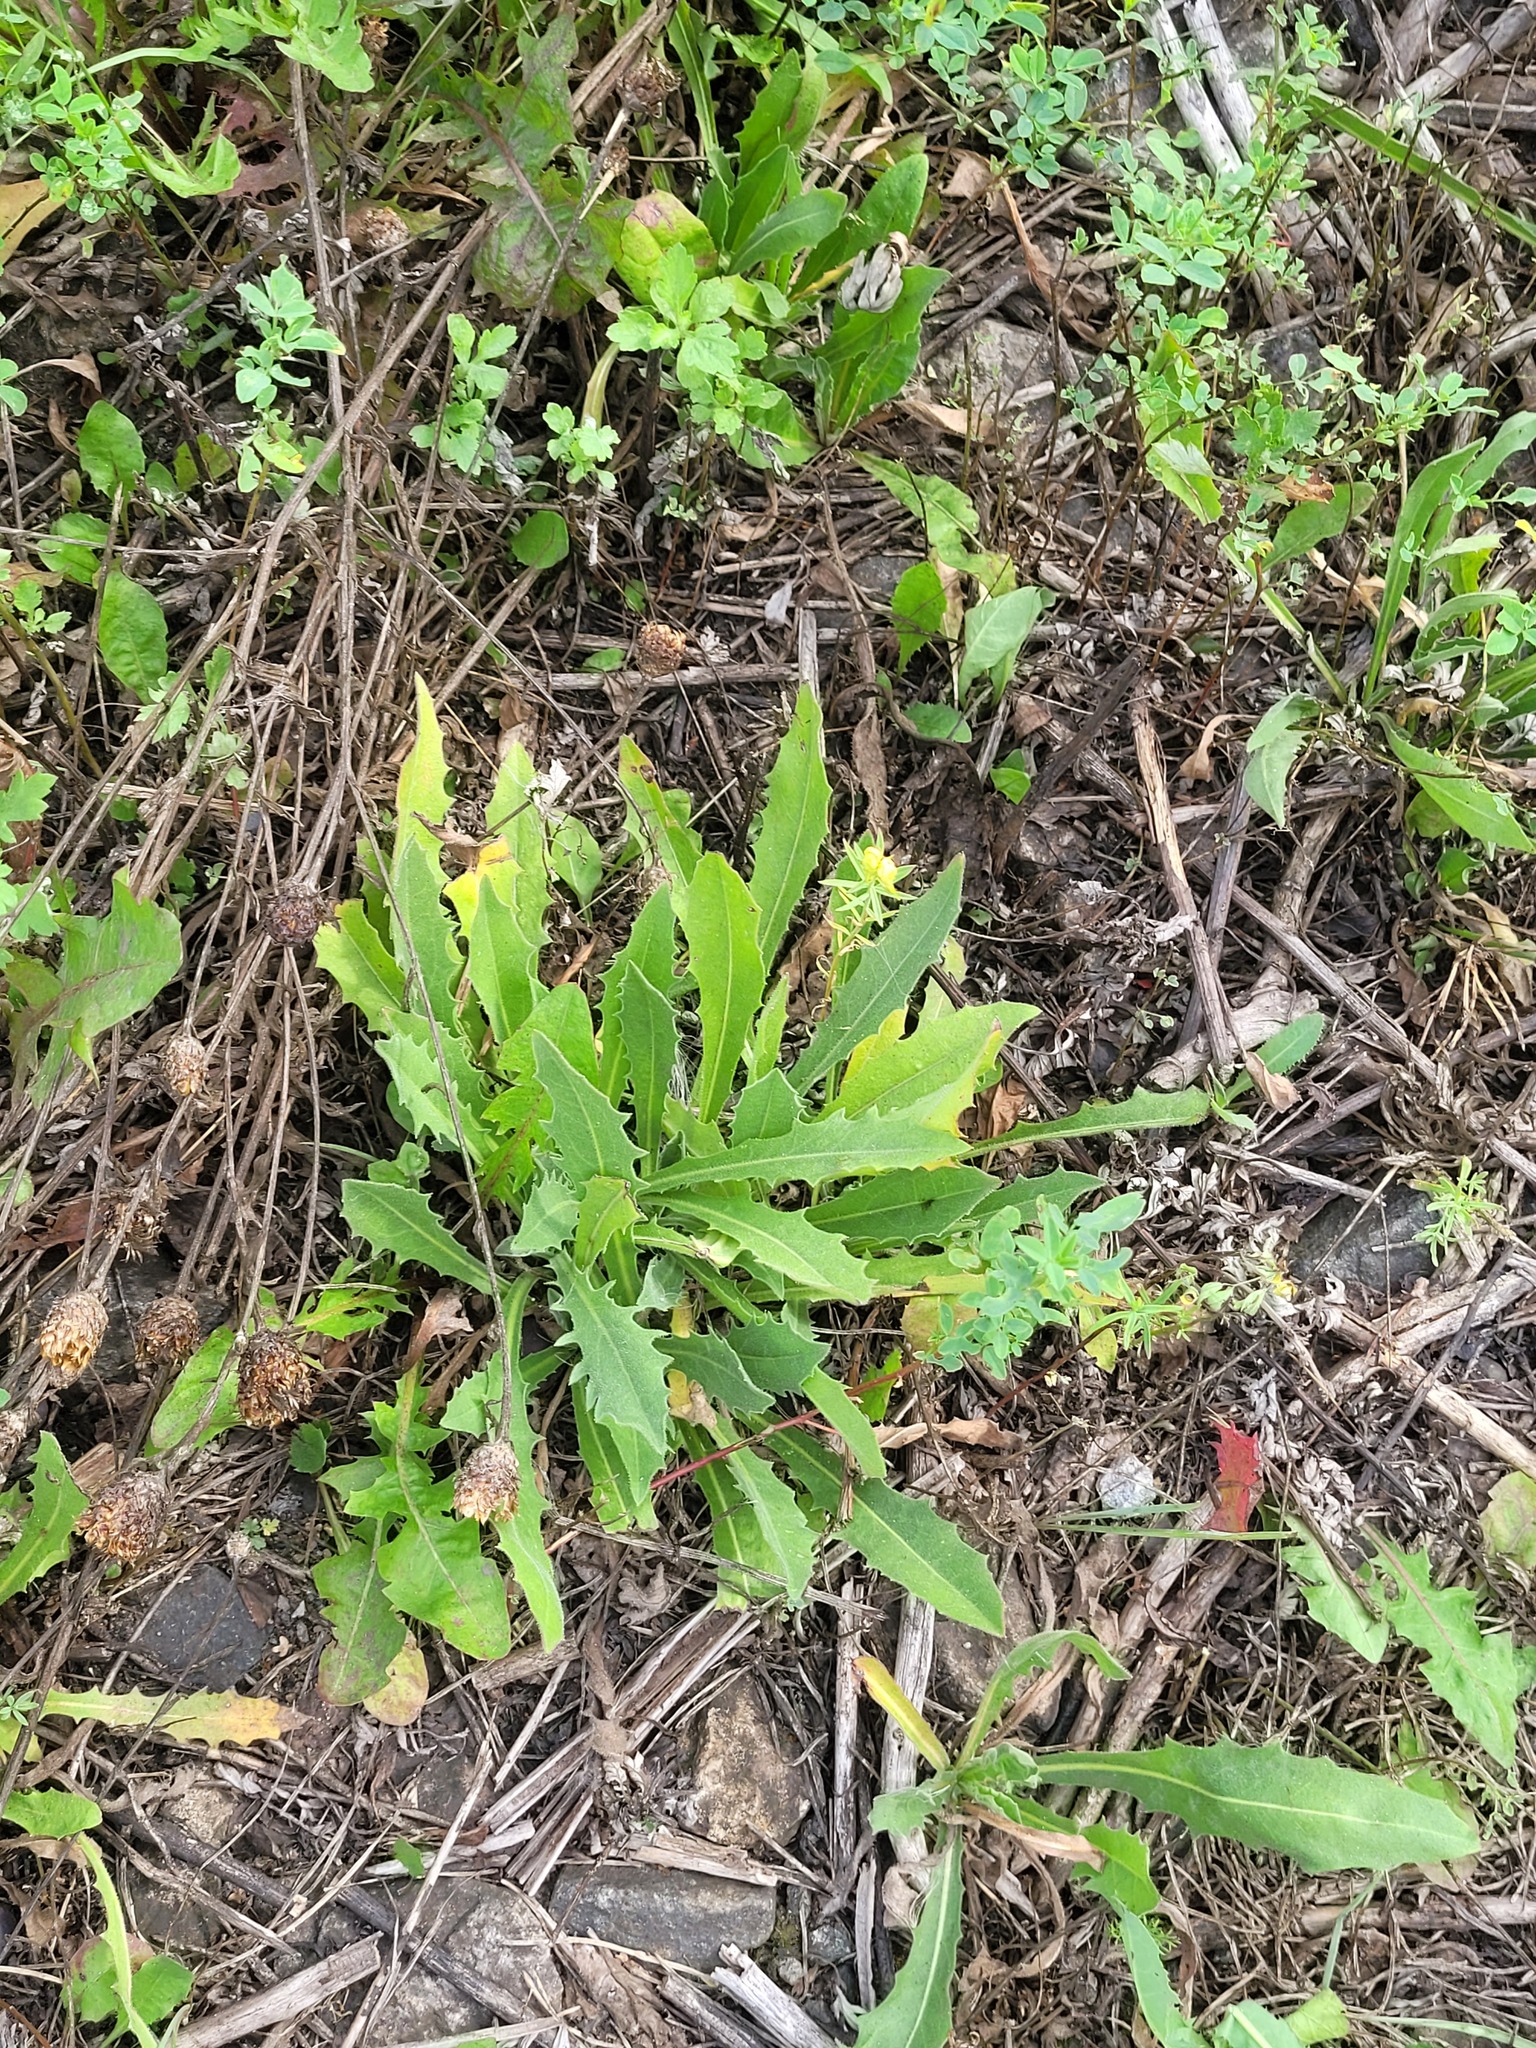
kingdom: Plantae
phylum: Tracheophyta
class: Magnoliopsida
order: Asterales
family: Asteraceae
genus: Leontodon
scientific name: Leontodon hispidus
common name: Rough hawkbit
